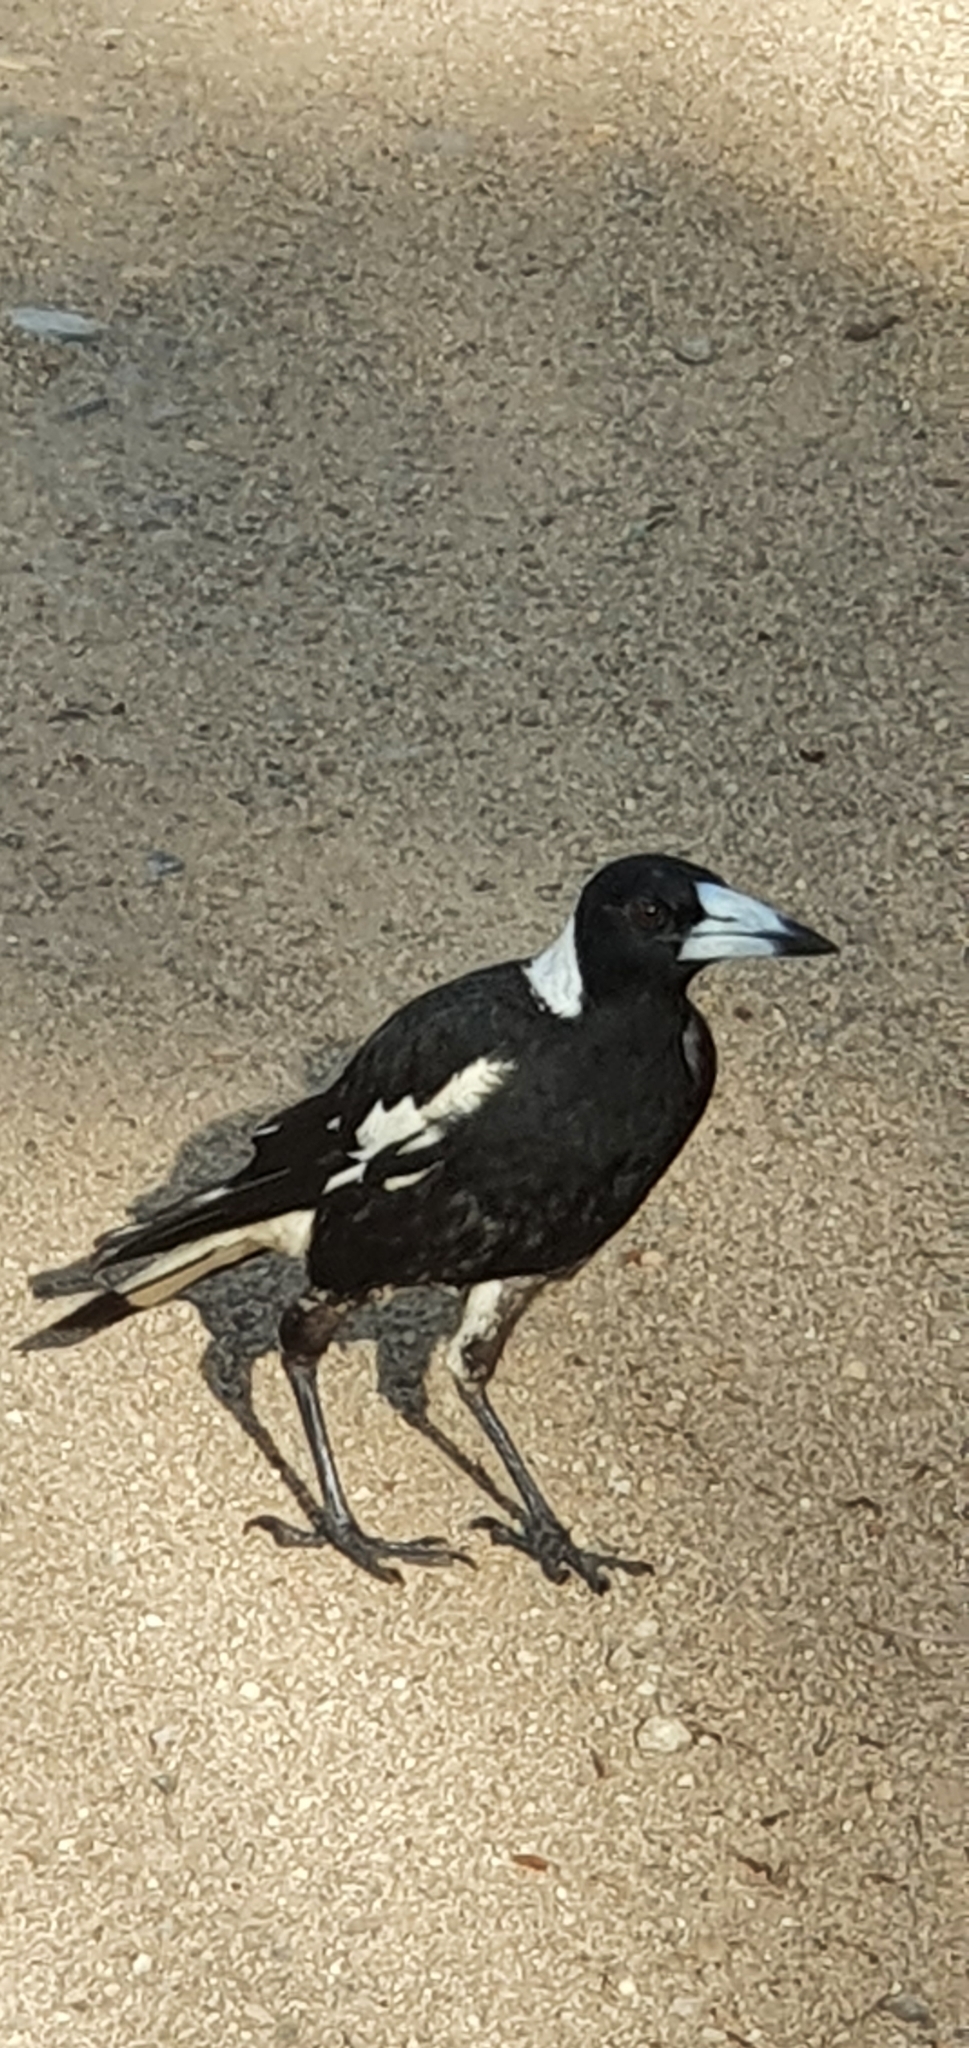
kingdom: Animalia
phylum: Chordata
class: Aves
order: Passeriformes
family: Cracticidae
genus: Gymnorhina
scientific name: Gymnorhina tibicen
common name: Australian magpie
